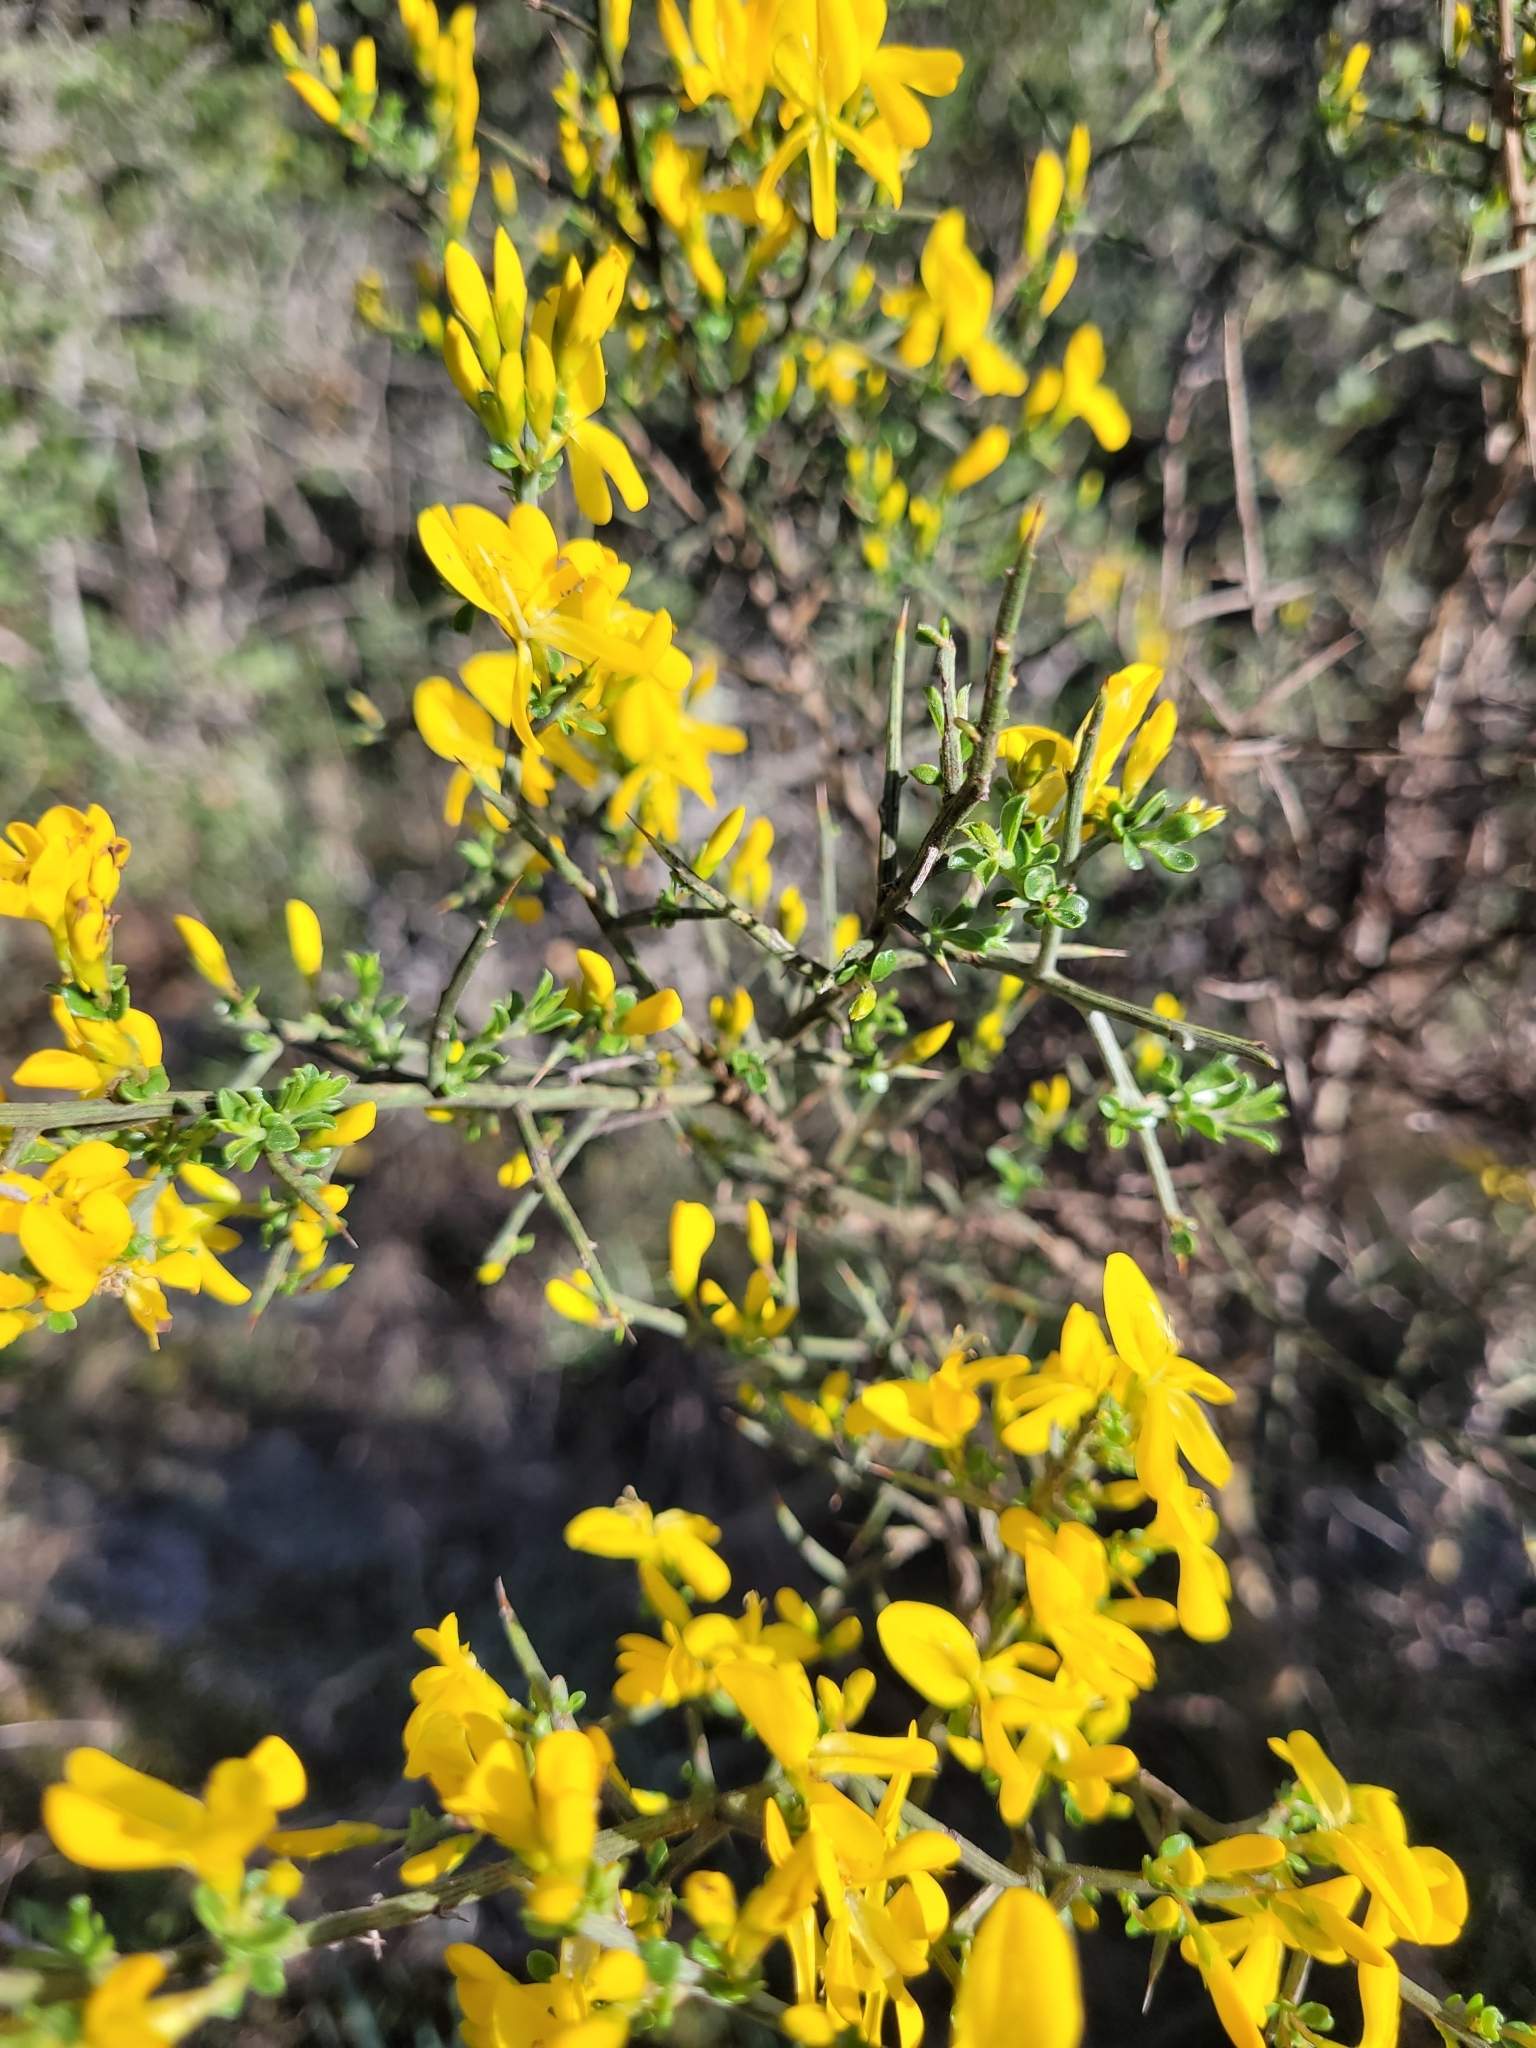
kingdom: Plantae
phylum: Tracheophyta
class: Magnoliopsida
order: Fabales
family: Fabaceae
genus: Genista
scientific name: Genista scorpius
